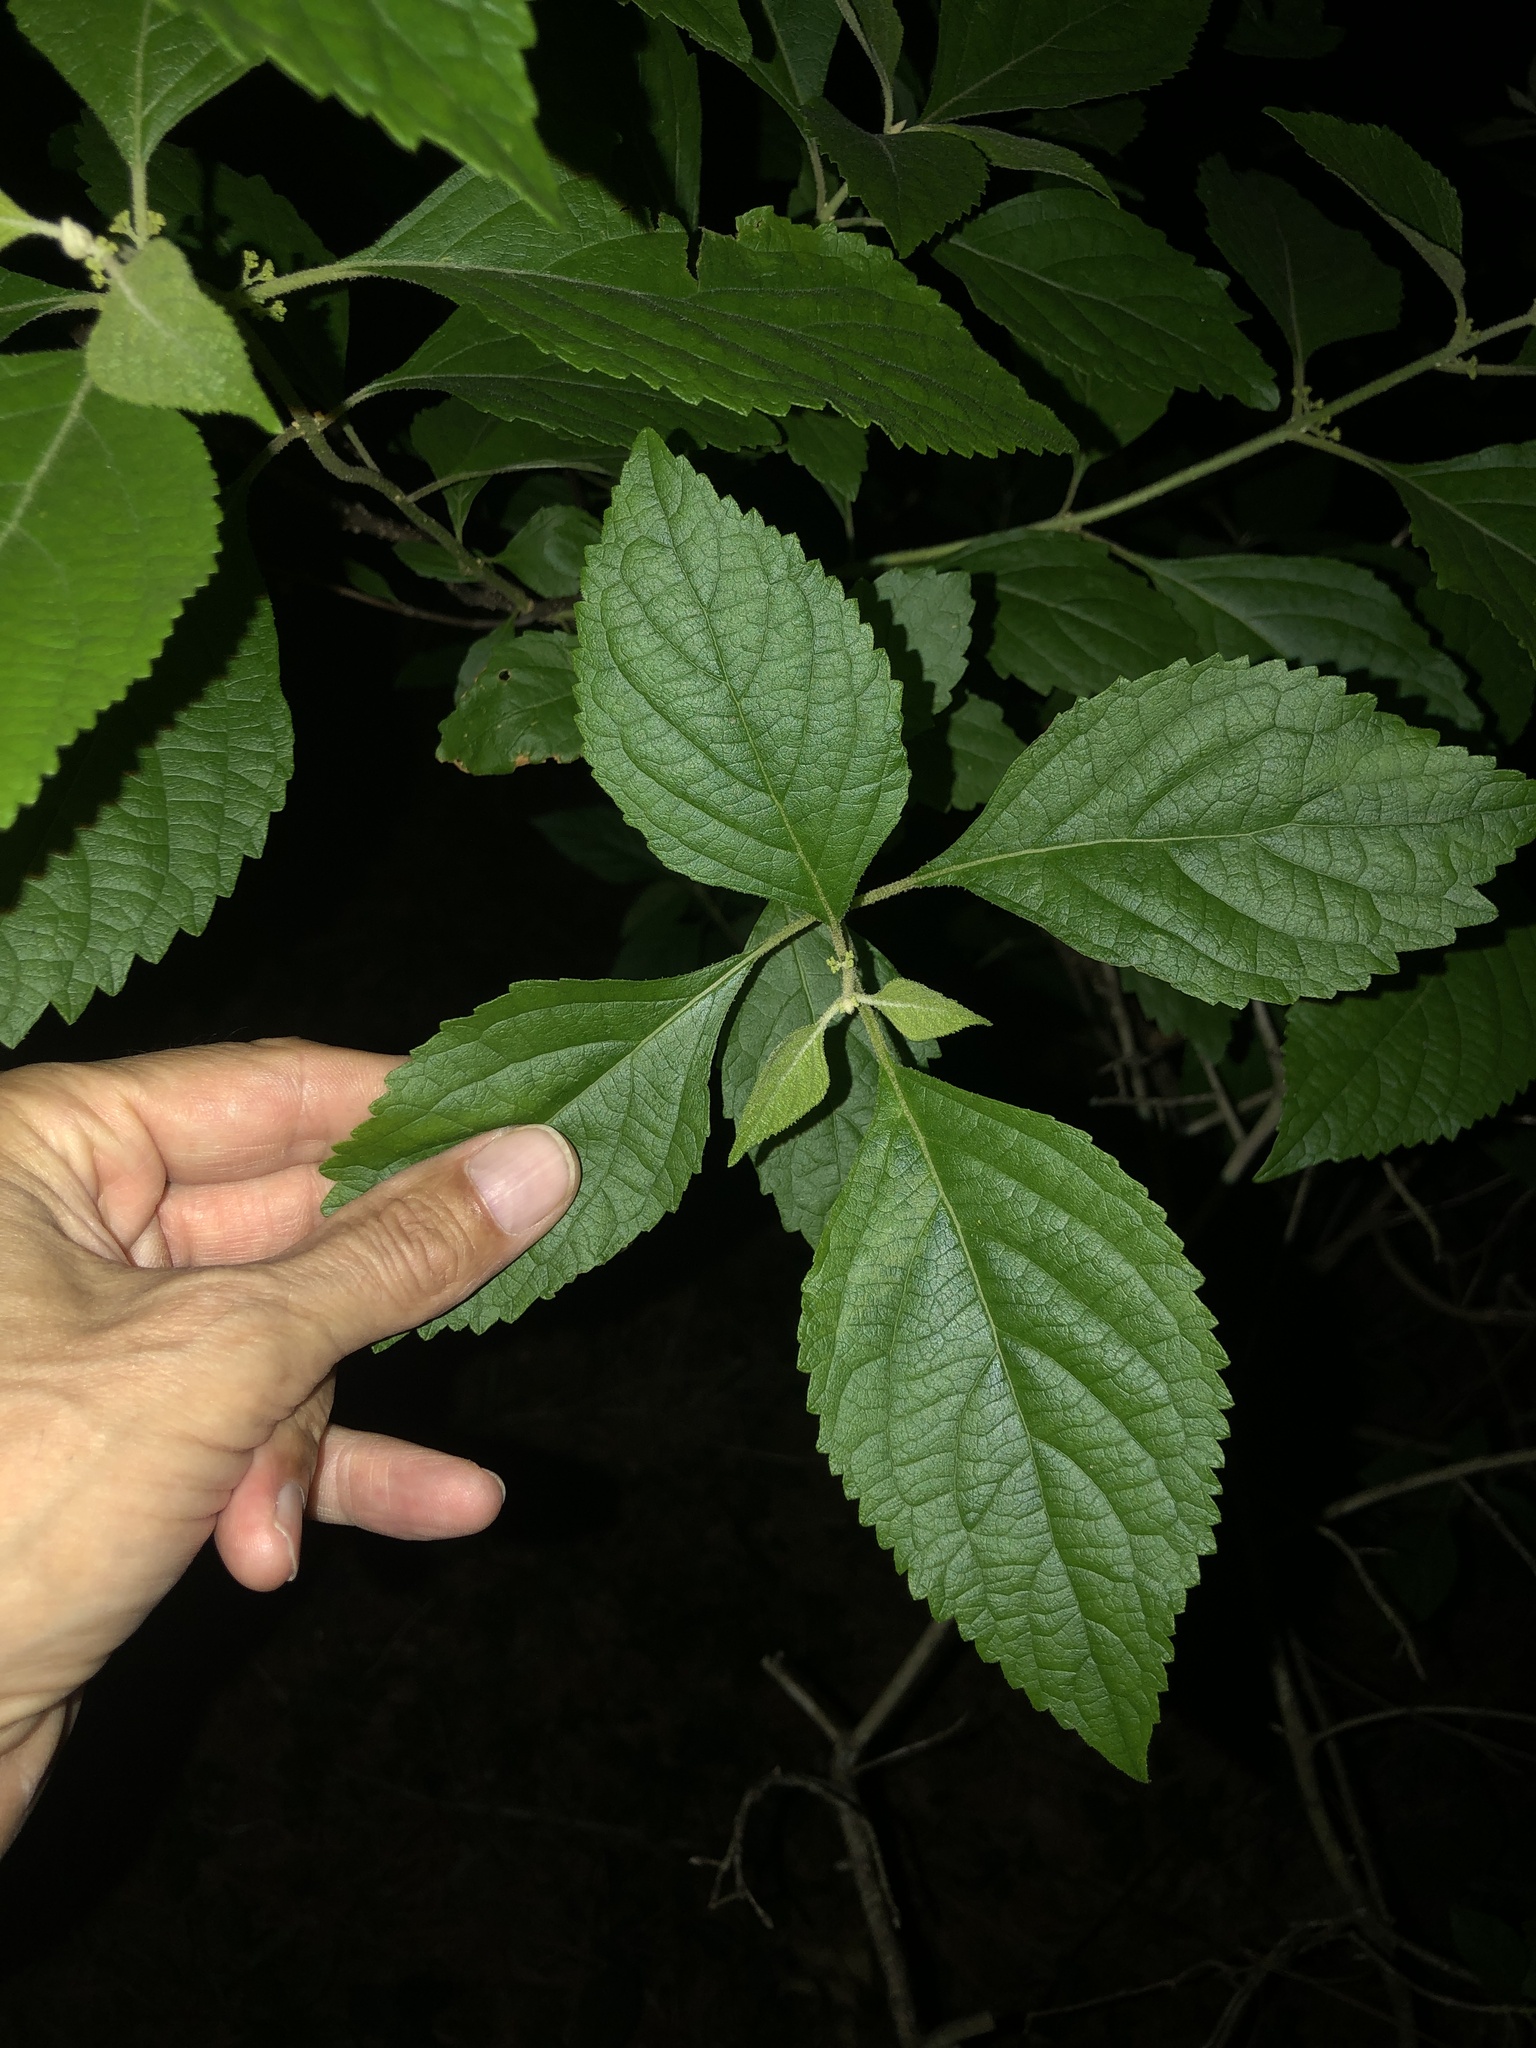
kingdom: Plantae
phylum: Tracheophyta
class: Magnoliopsida
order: Lamiales
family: Lamiaceae
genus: Callicarpa
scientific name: Callicarpa americana
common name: American beautyberry
